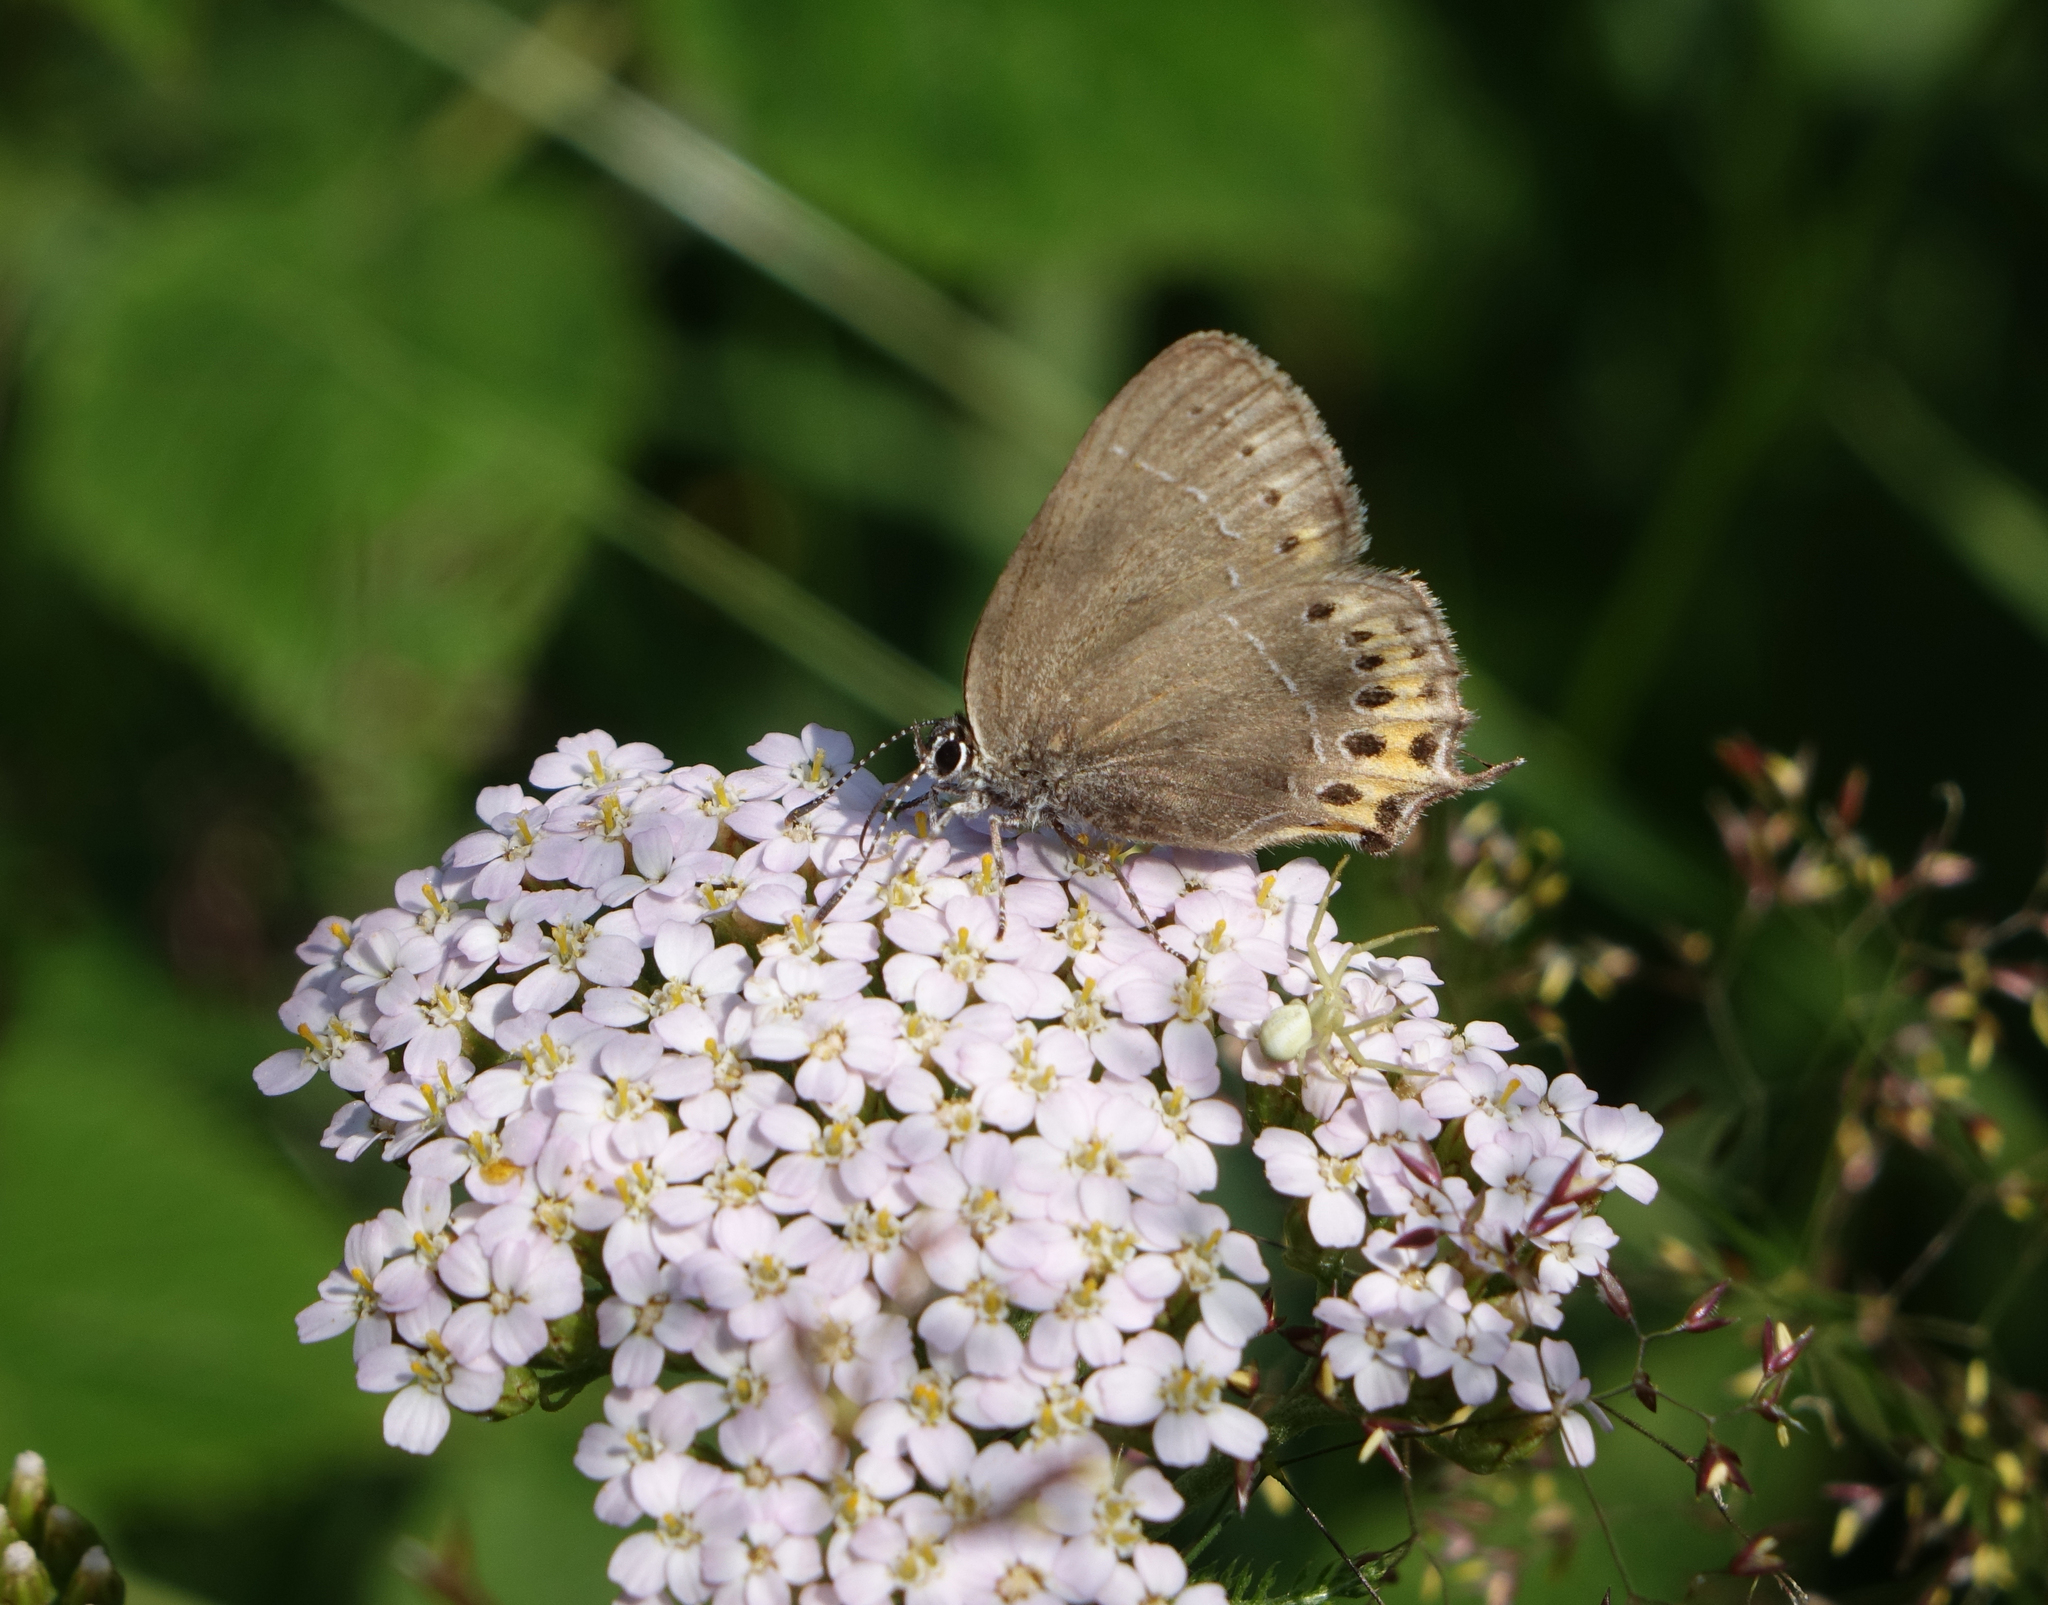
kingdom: Animalia
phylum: Arthropoda
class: Insecta
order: Lepidoptera
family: Lycaenidae
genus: Fixsenia
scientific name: Fixsenia pruni
